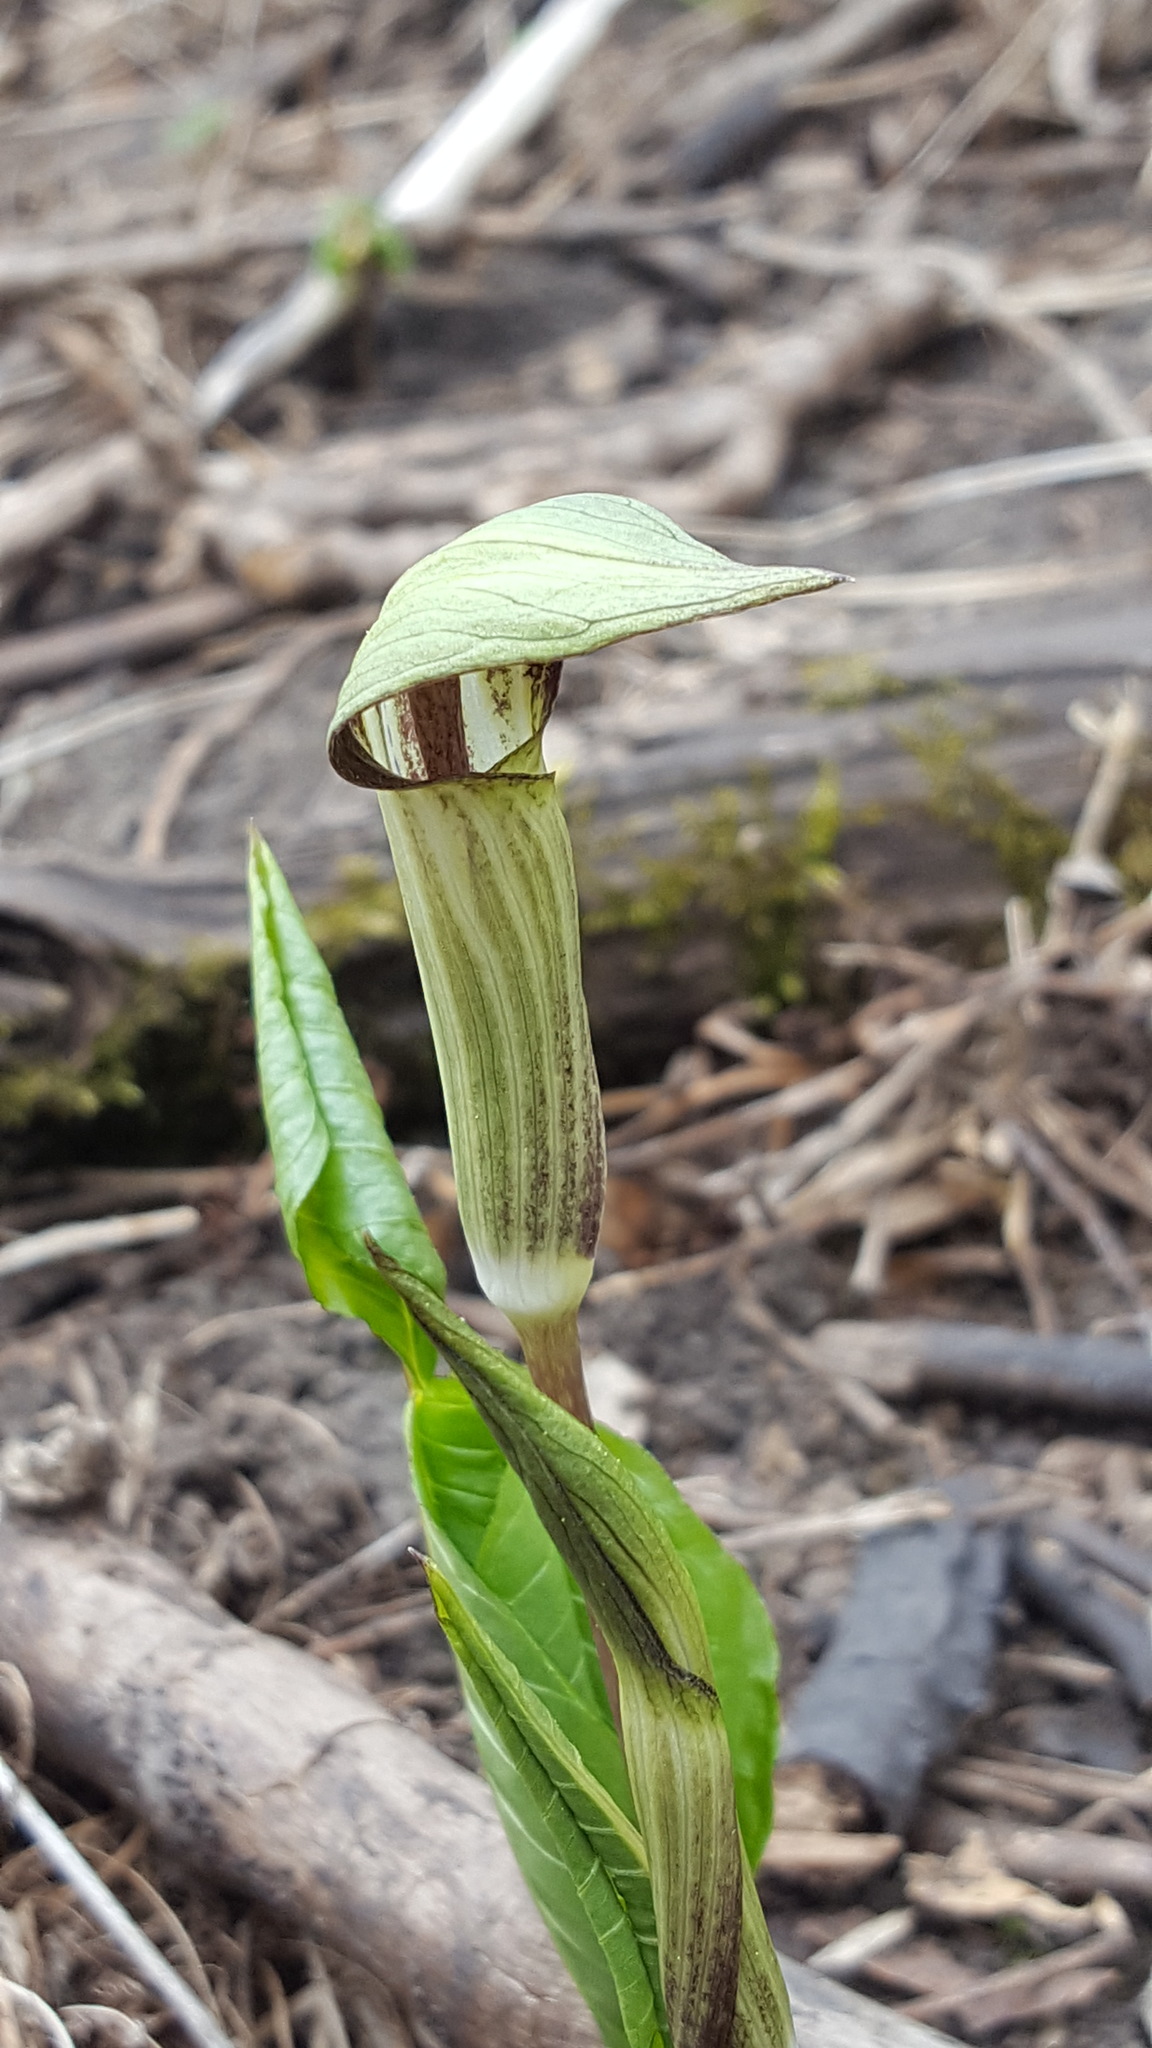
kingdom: Plantae
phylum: Tracheophyta
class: Liliopsida
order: Alismatales
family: Araceae
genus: Arisaema
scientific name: Arisaema triphyllum
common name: Jack-in-the-pulpit
